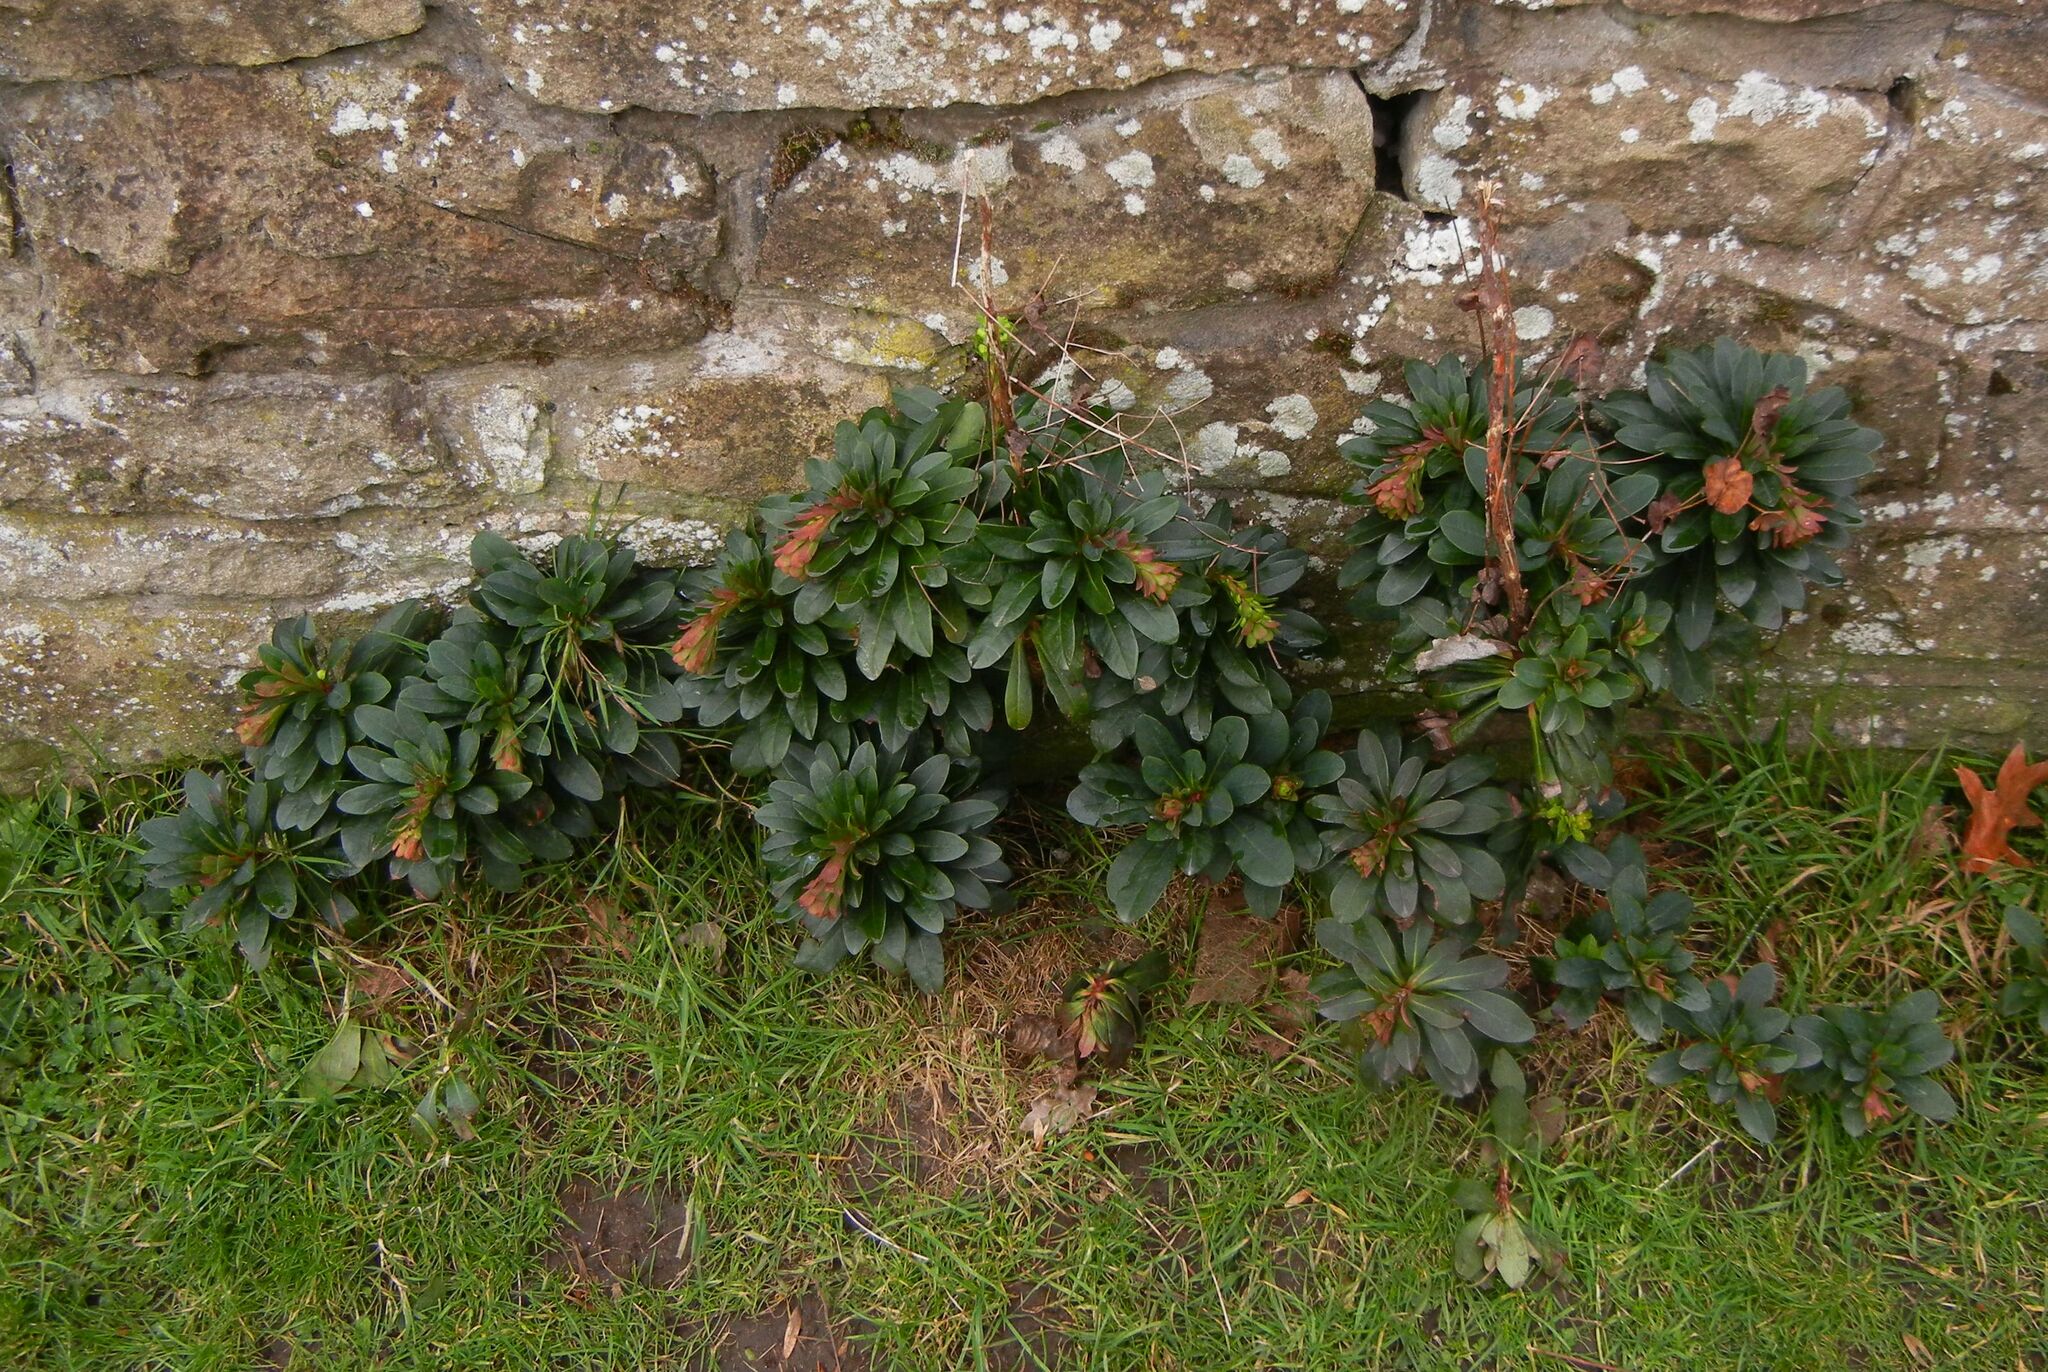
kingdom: Plantae
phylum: Tracheophyta
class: Magnoliopsida
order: Malpighiales
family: Euphorbiaceae
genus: Euphorbia
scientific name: Euphorbia amygdaloides
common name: Wood spurge
